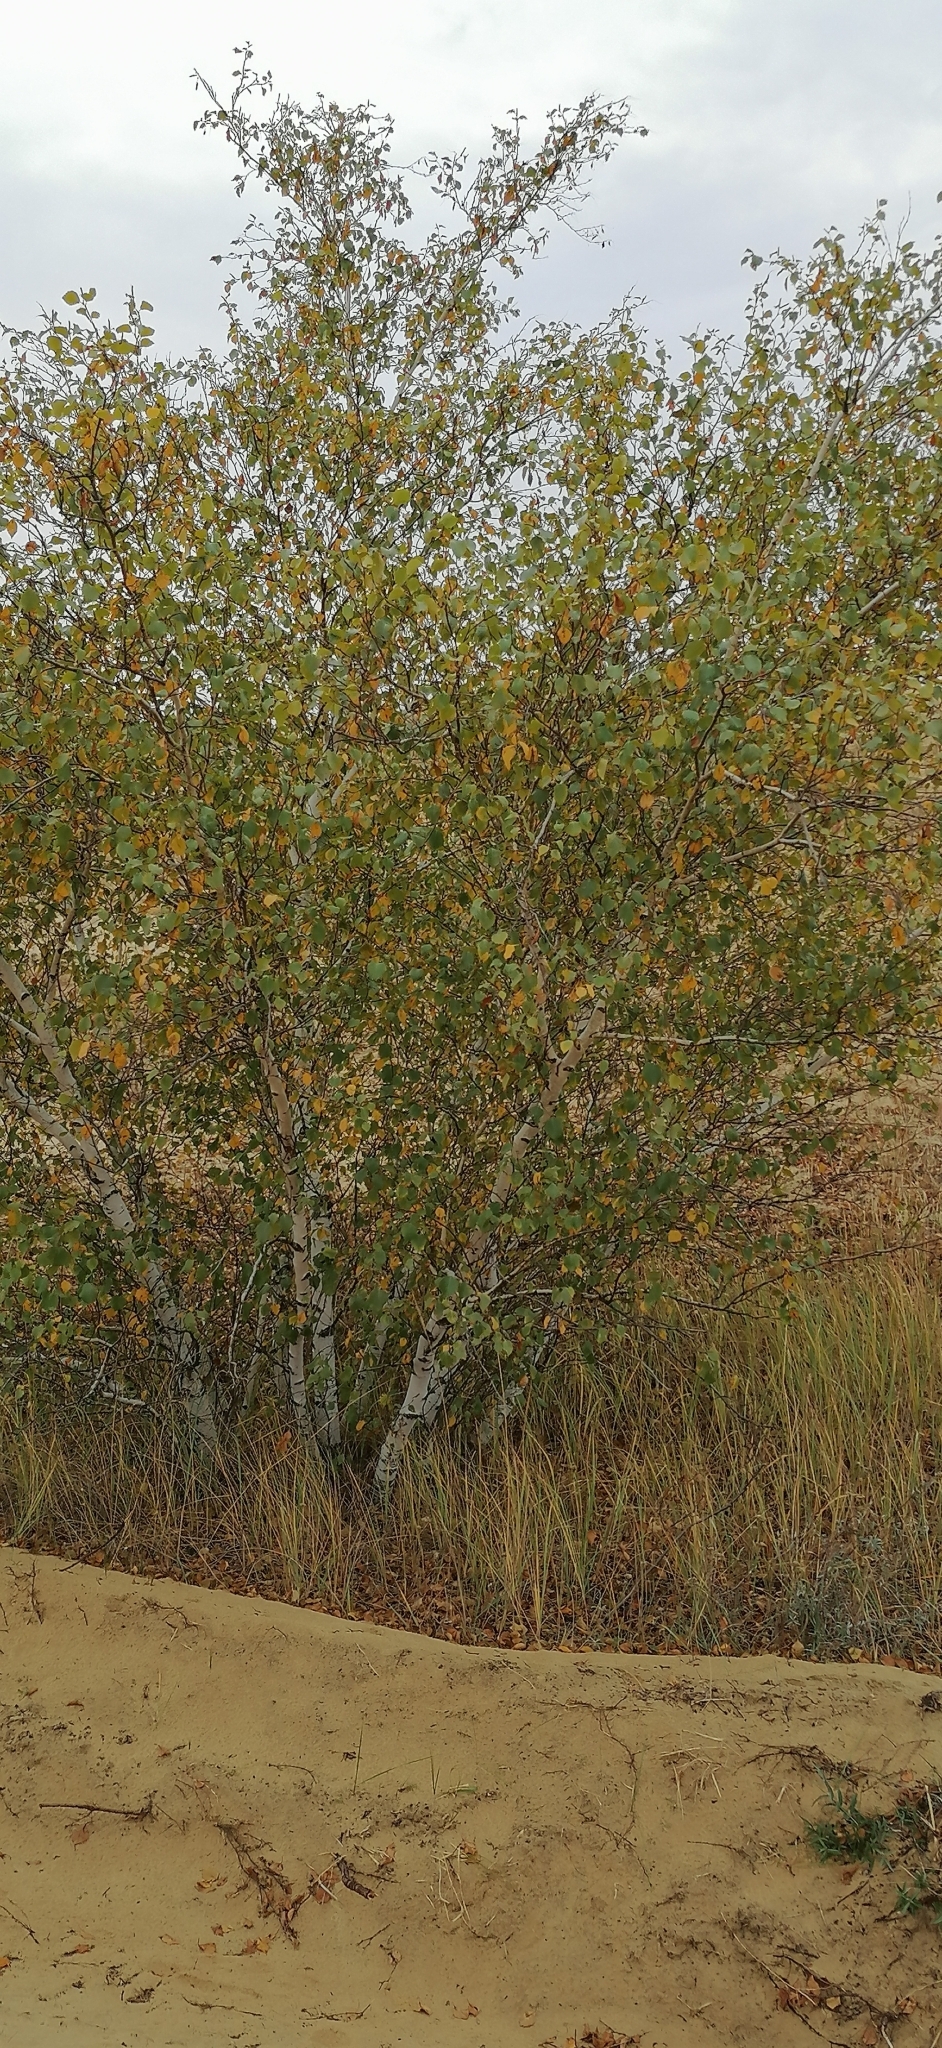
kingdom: Plantae
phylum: Tracheophyta
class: Magnoliopsida
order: Fagales
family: Betulaceae
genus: Betula
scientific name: Betula pubescens
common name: Downy birch
